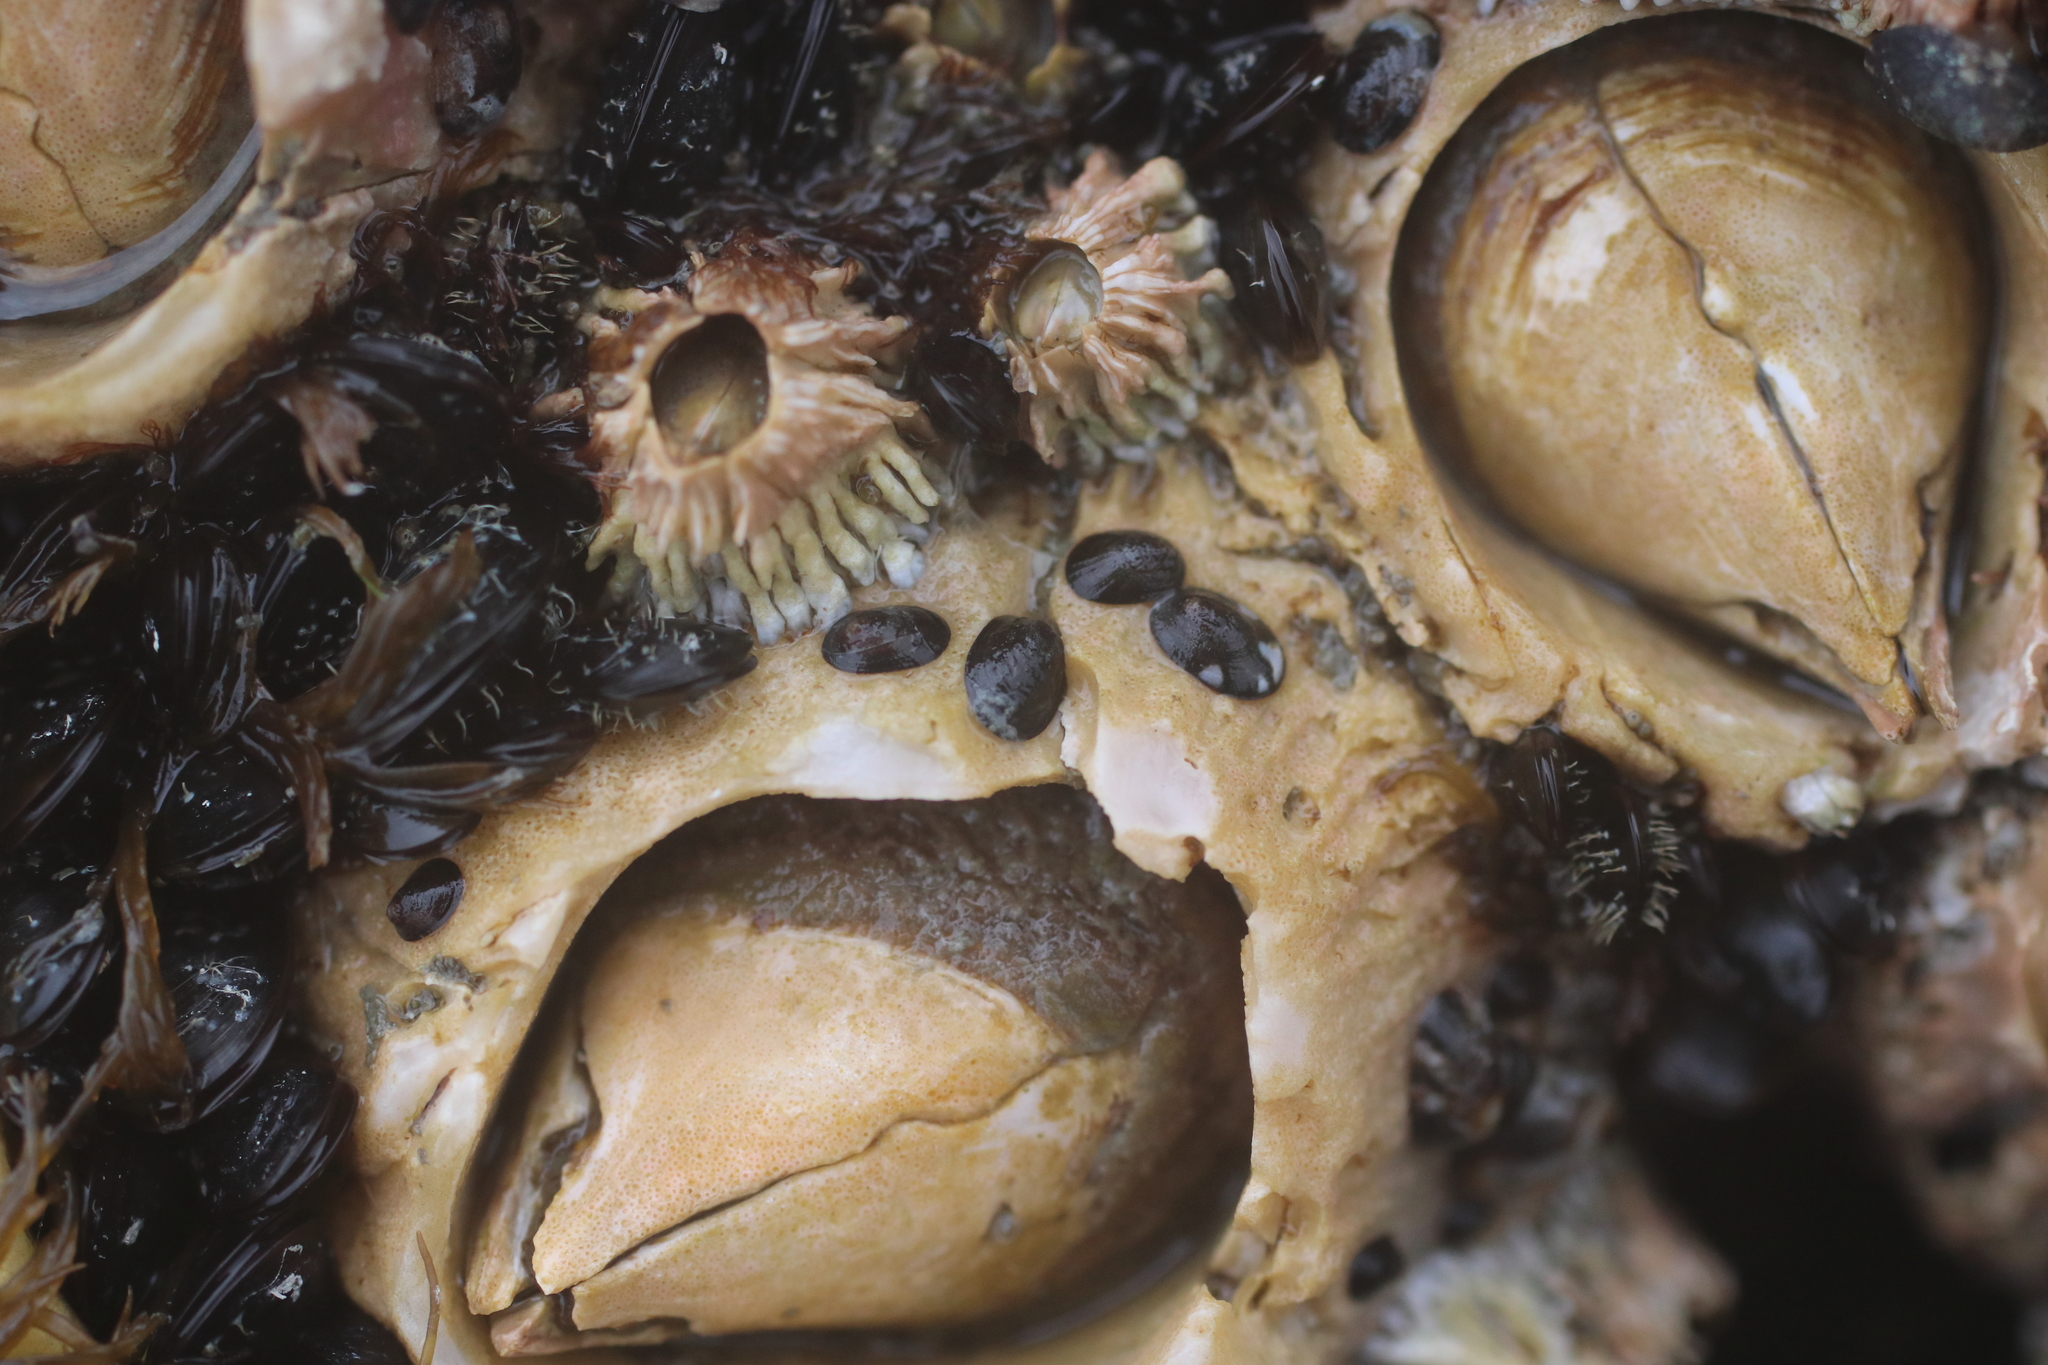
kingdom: Animalia
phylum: Arthropoda
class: Maxillopoda
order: Sessilia
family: Archaeobalanidae
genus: Semibalanus
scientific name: Semibalanus cariosus
